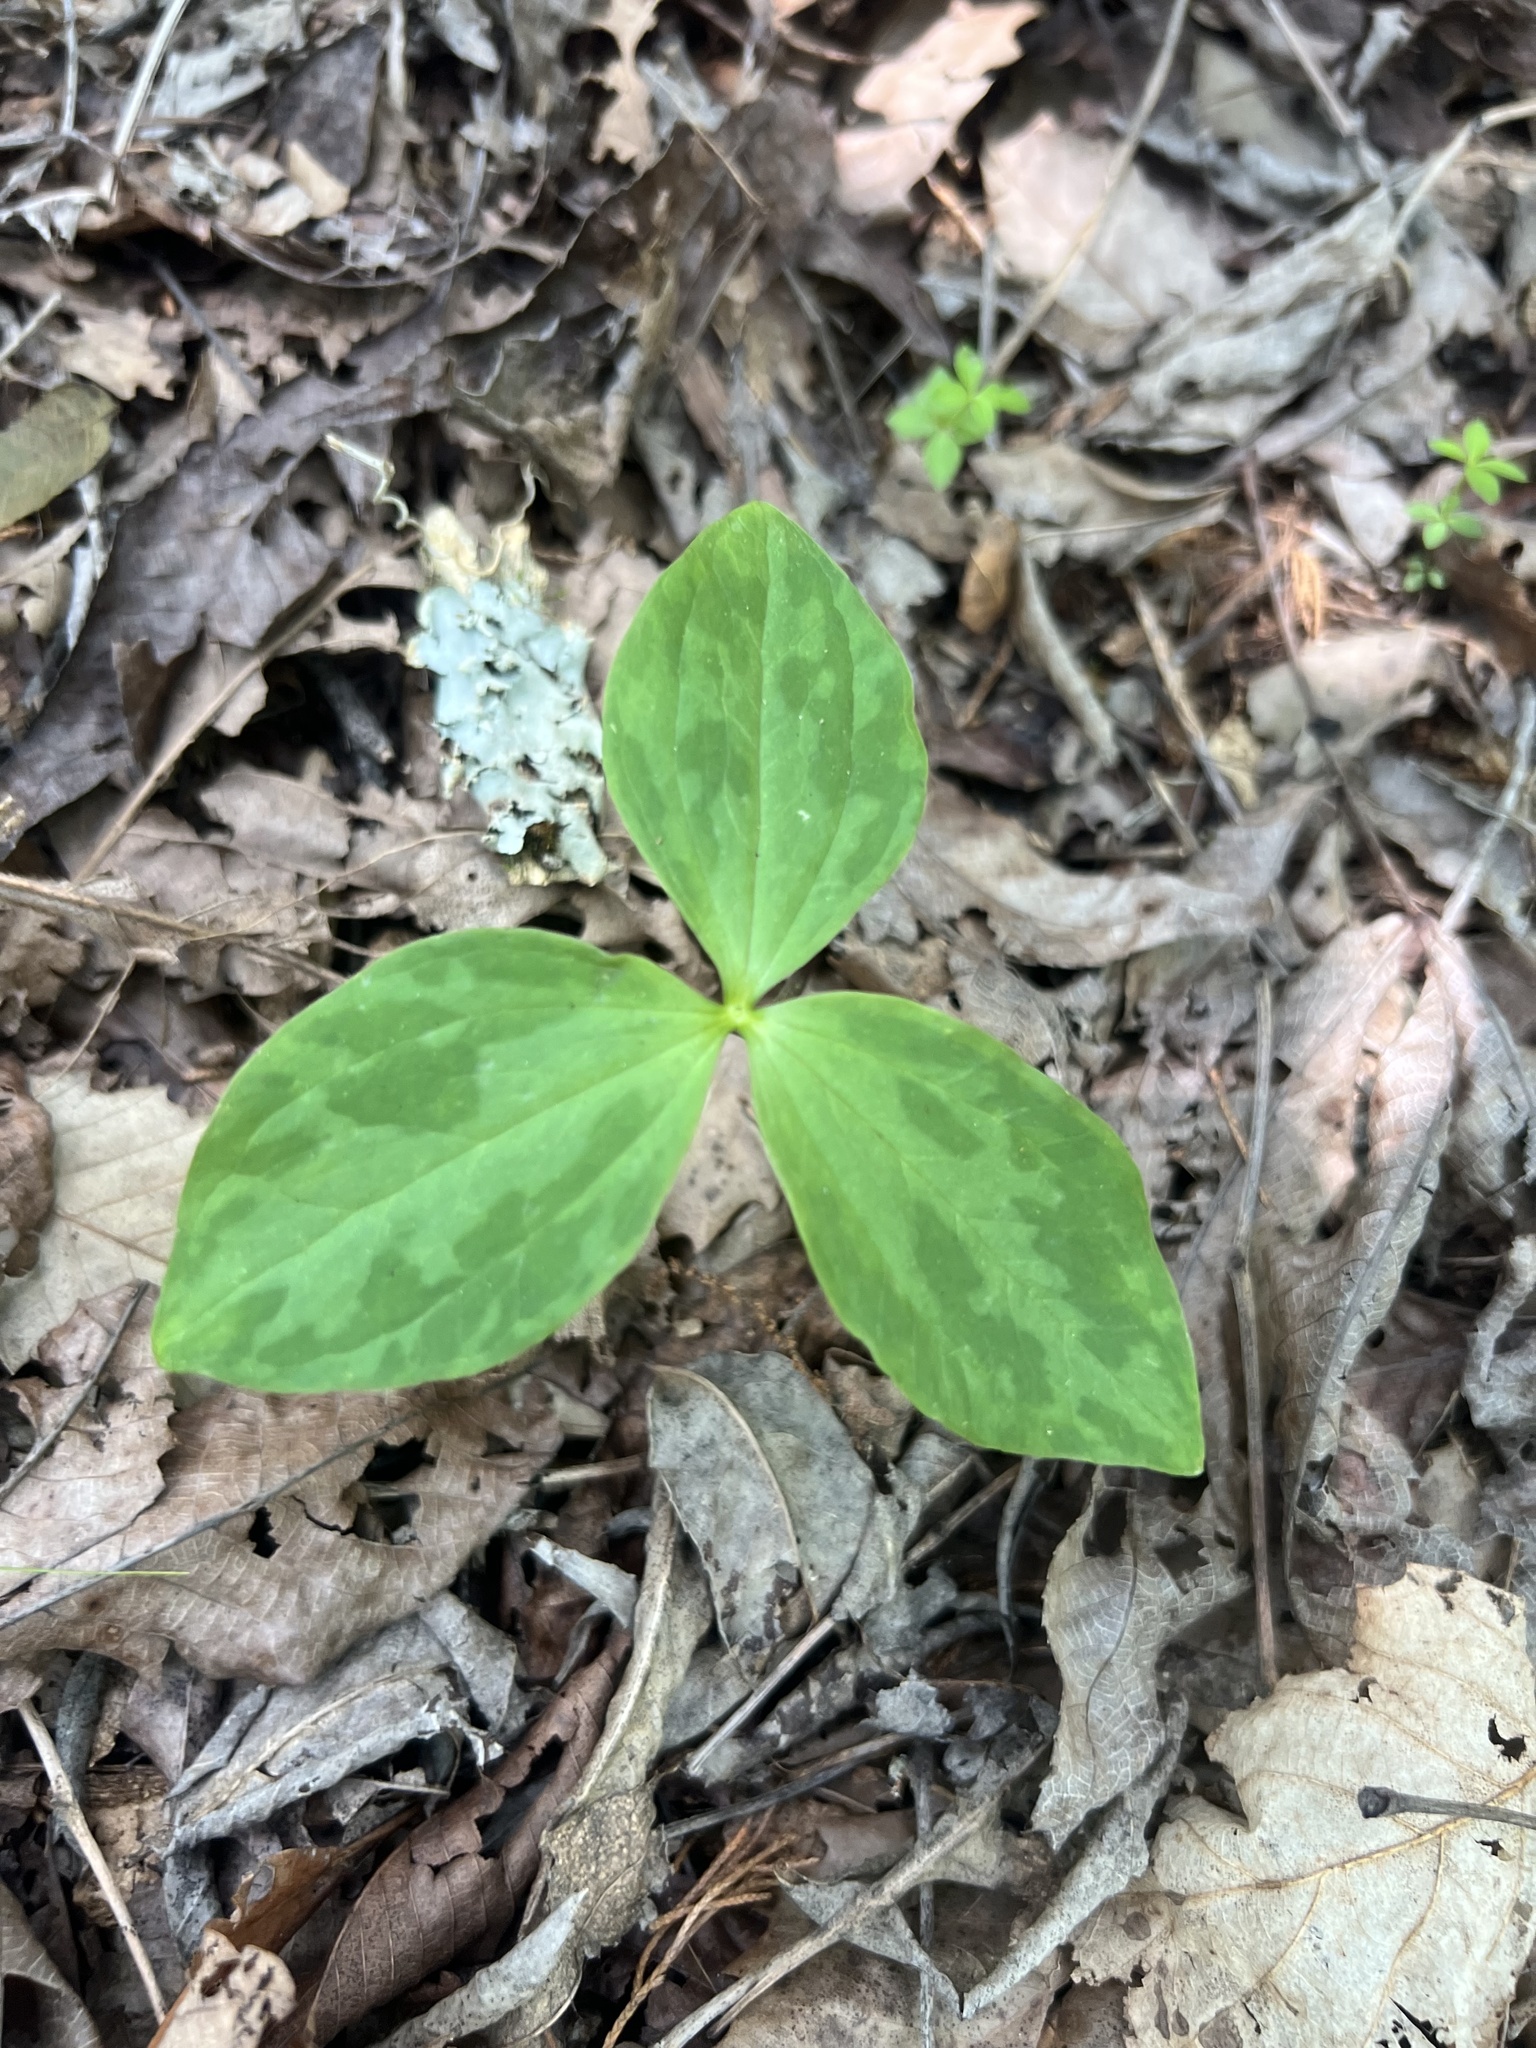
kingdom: Plantae
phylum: Tracheophyta
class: Liliopsida
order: Liliales
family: Melanthiaceae
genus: Trillium
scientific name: Trillium sessile
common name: Sessile trillium
